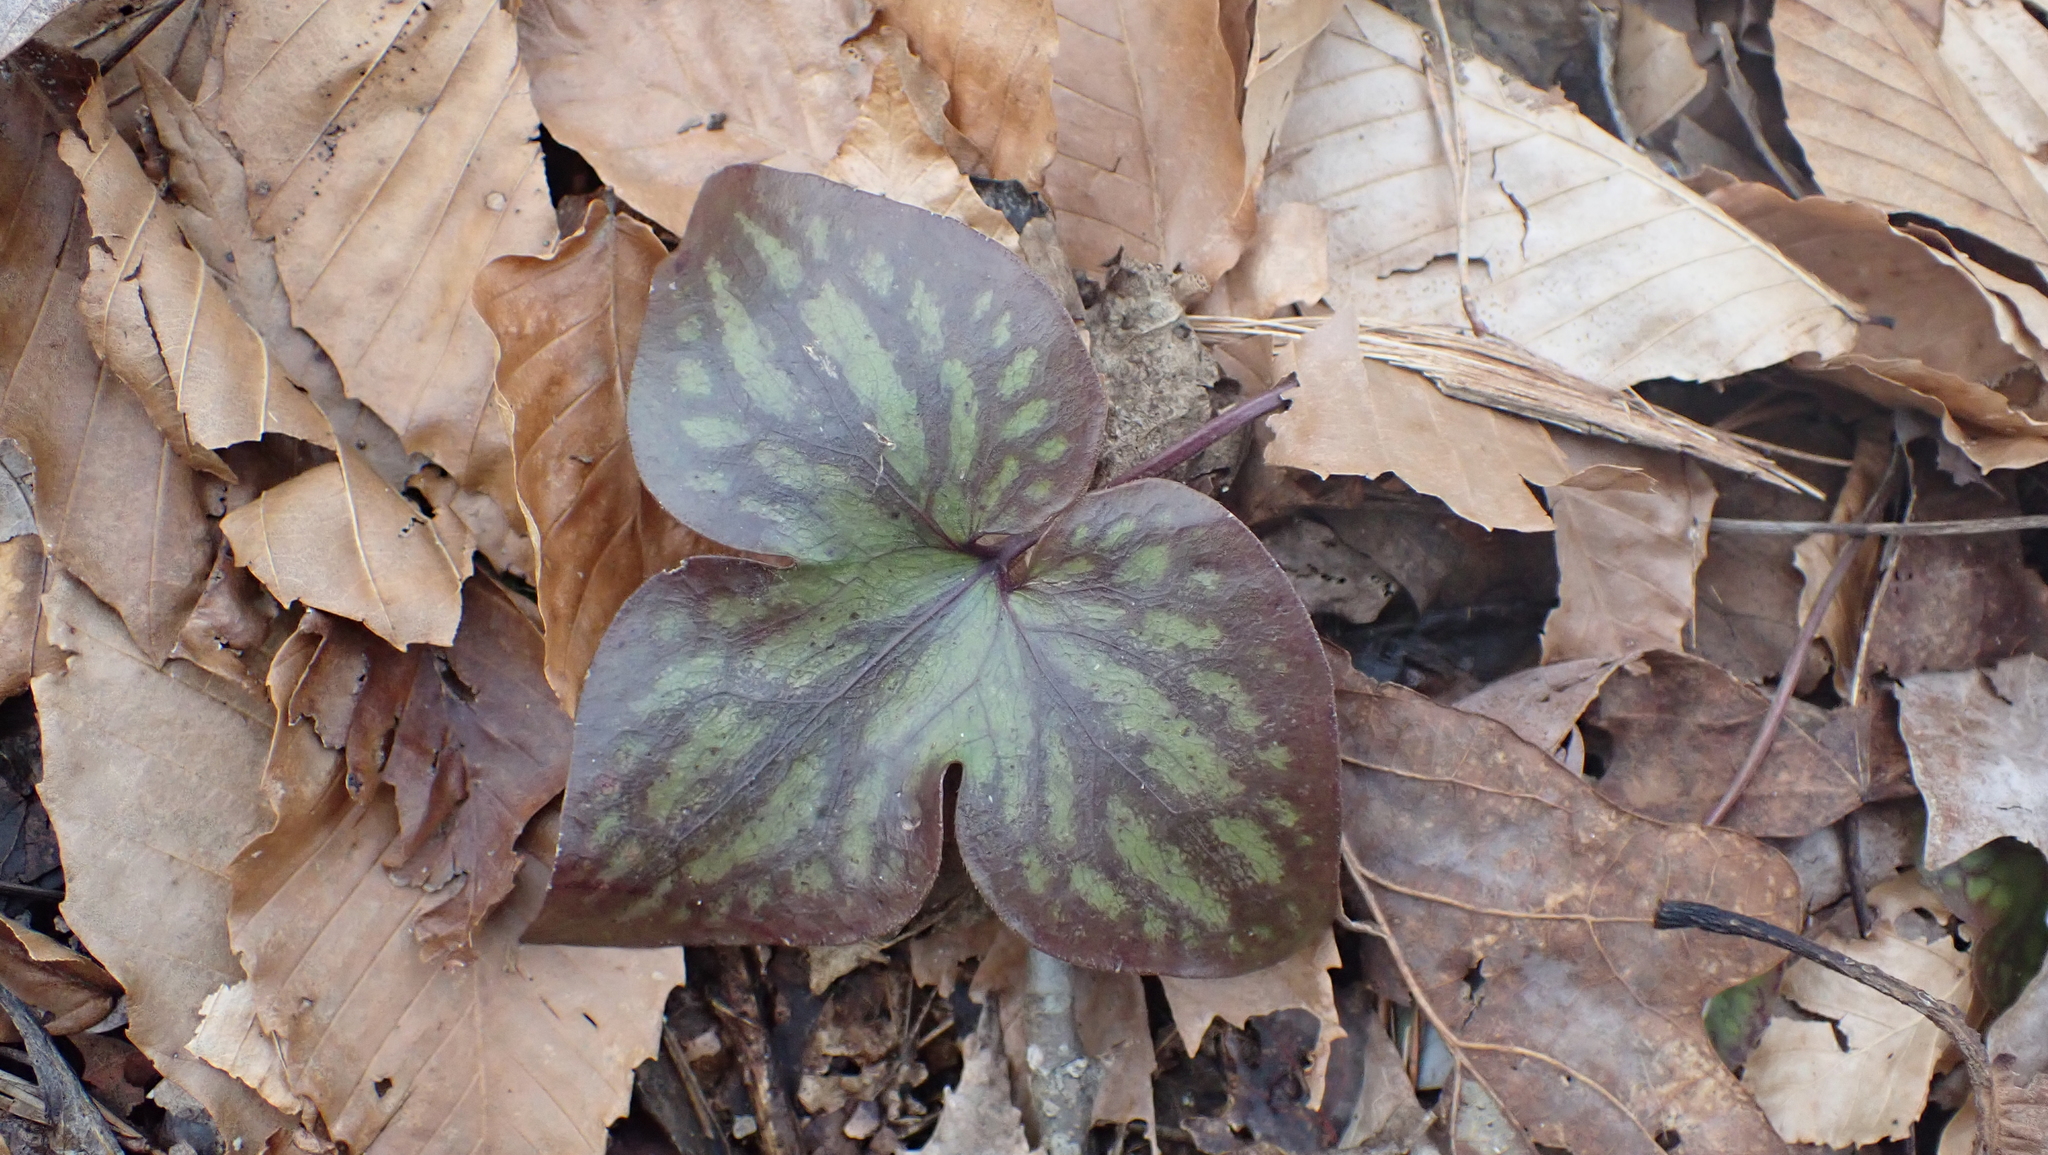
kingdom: Plantae
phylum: Tracheophyta
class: Magnoliopsida
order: Ranunculales
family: Ranunculaceae
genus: Hepatica
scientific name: Hepatica acutiloba
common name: Sharp-lobed hepatica
